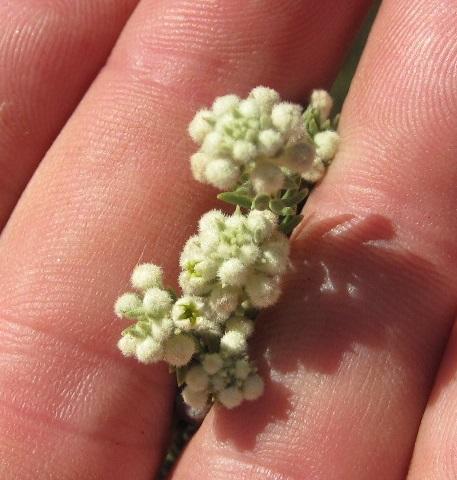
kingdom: Plantae
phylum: Tracheophyta
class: Magnoliopsida
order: Rosales
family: Rhamnaceae
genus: Phylica
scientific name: Phylica axillaris
